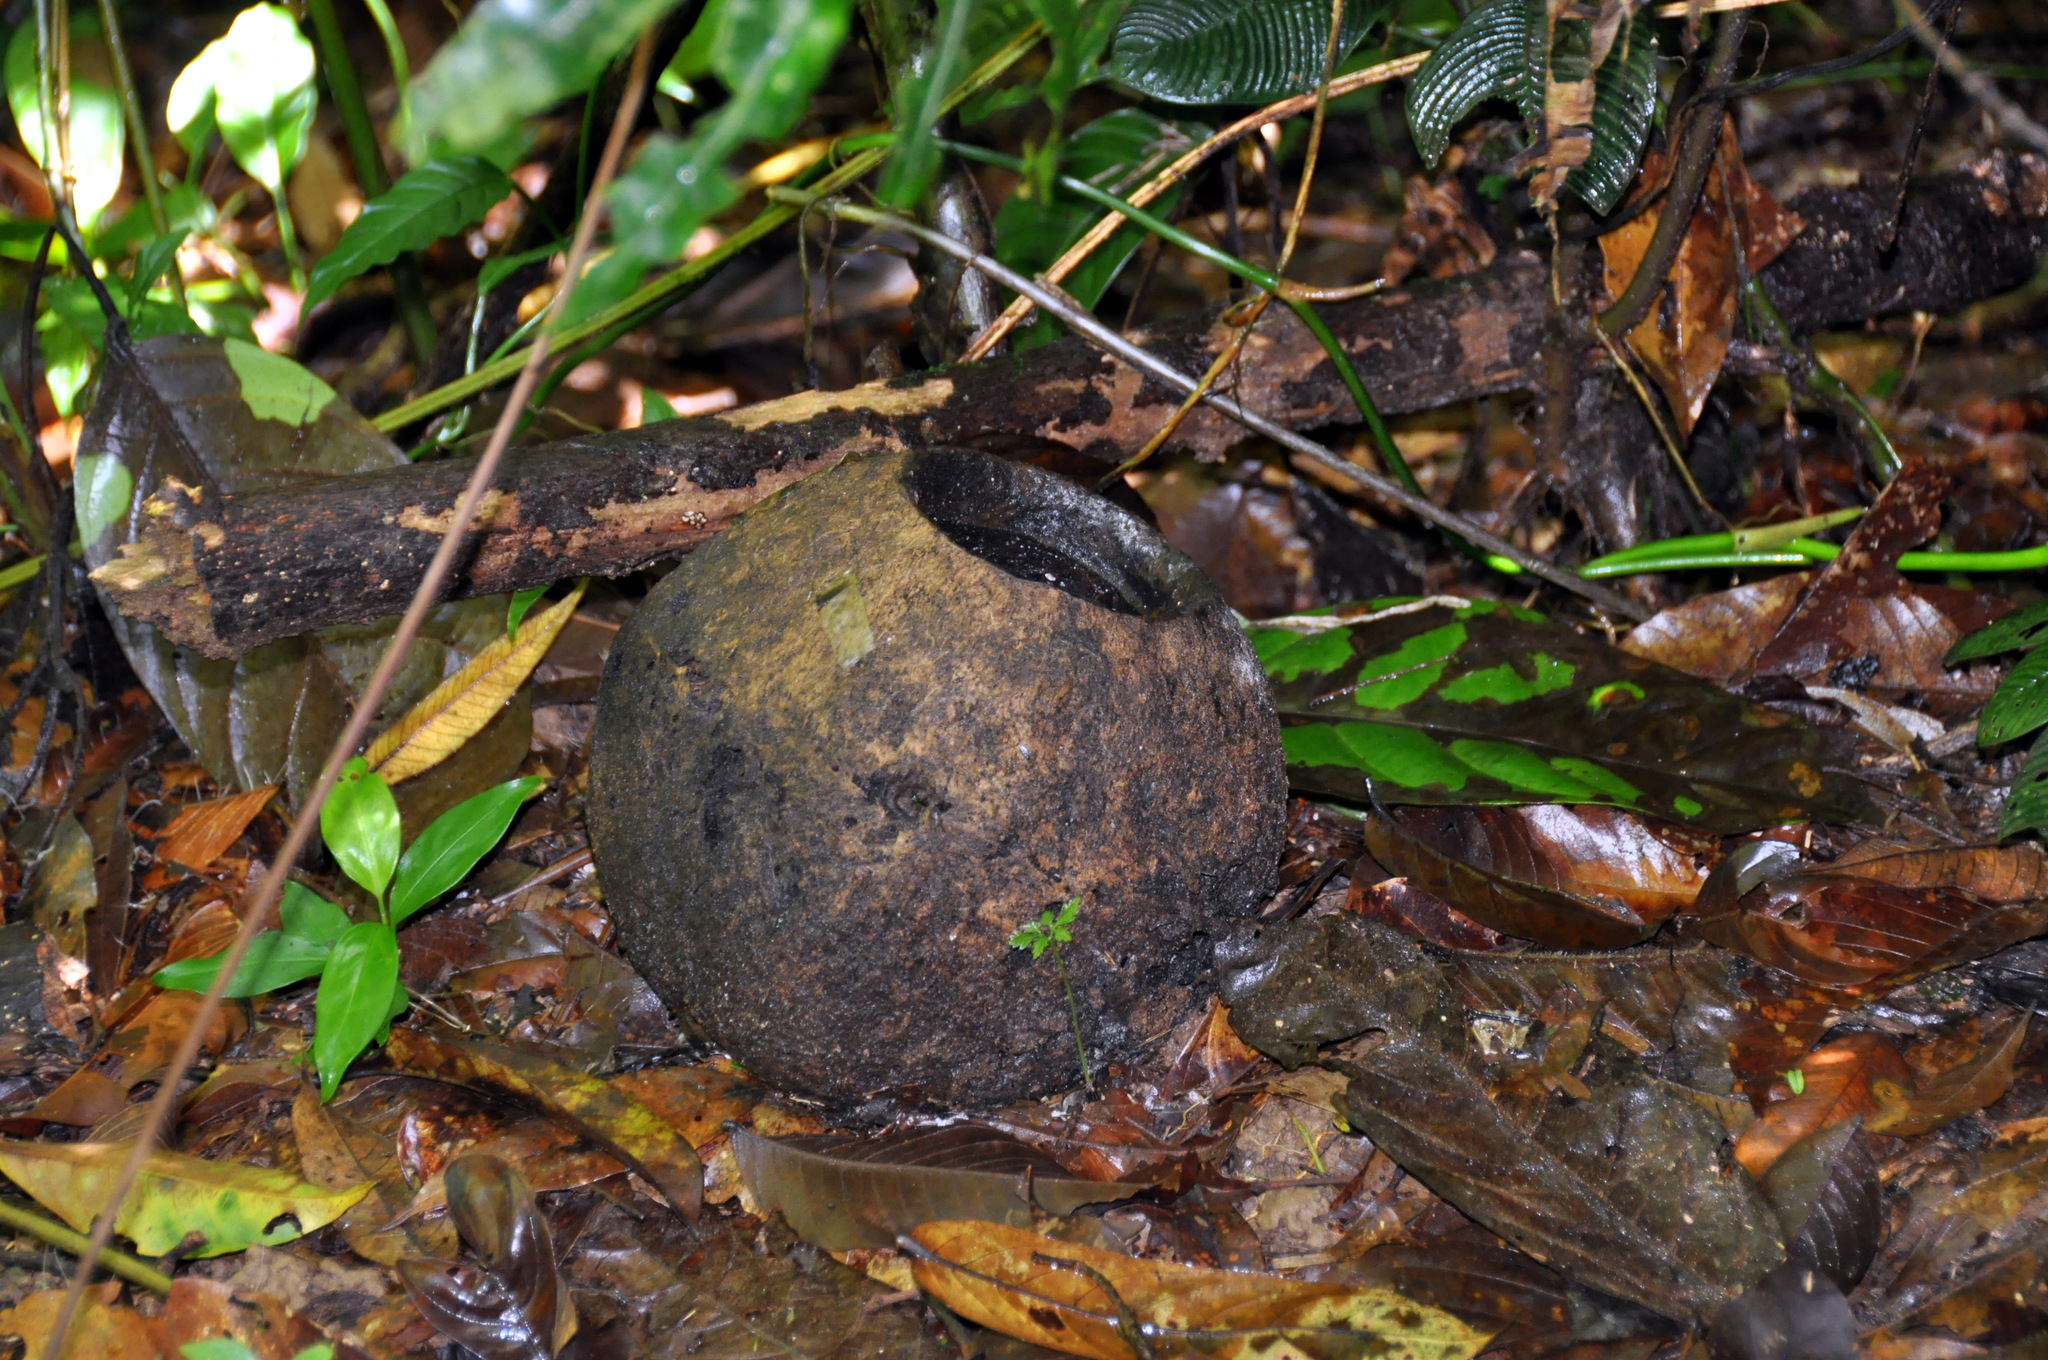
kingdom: Plantae
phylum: Tracheophyta
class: Magnoliopsida
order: Ericales
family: Lecythidaceae
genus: Lecythis
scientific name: Lecythis ampla
